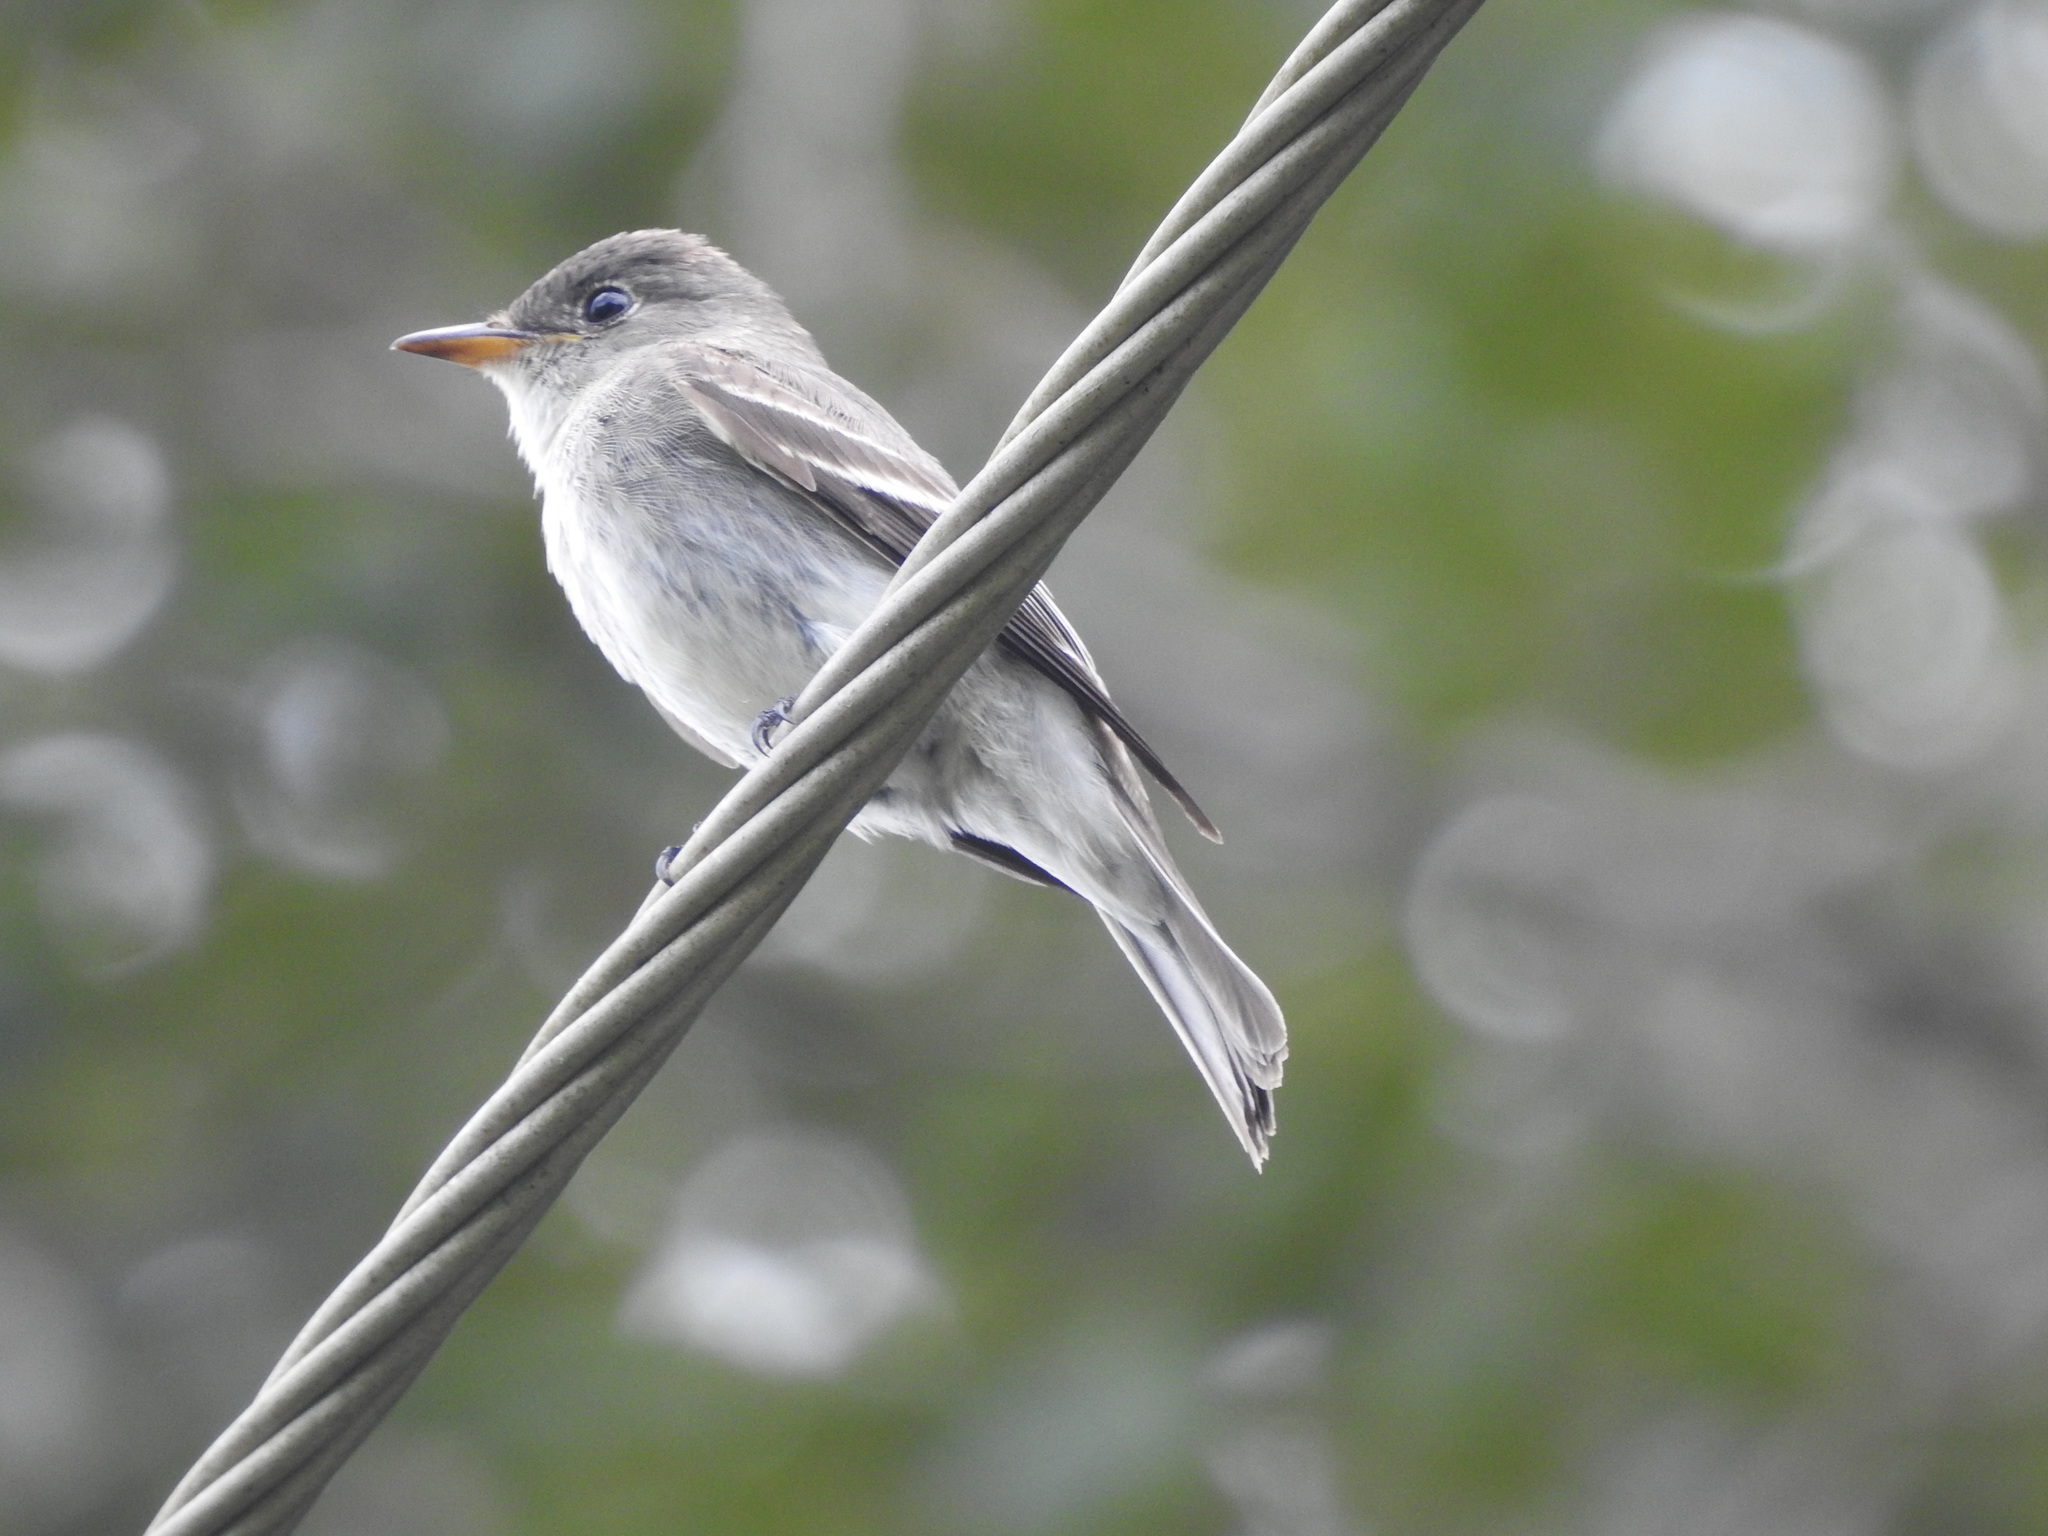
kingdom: Animalia
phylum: Chordata
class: Aves
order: Passeriformes
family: Tyrannidae
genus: Contopus
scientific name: Contopus virens
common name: Eastern wood-pewee
